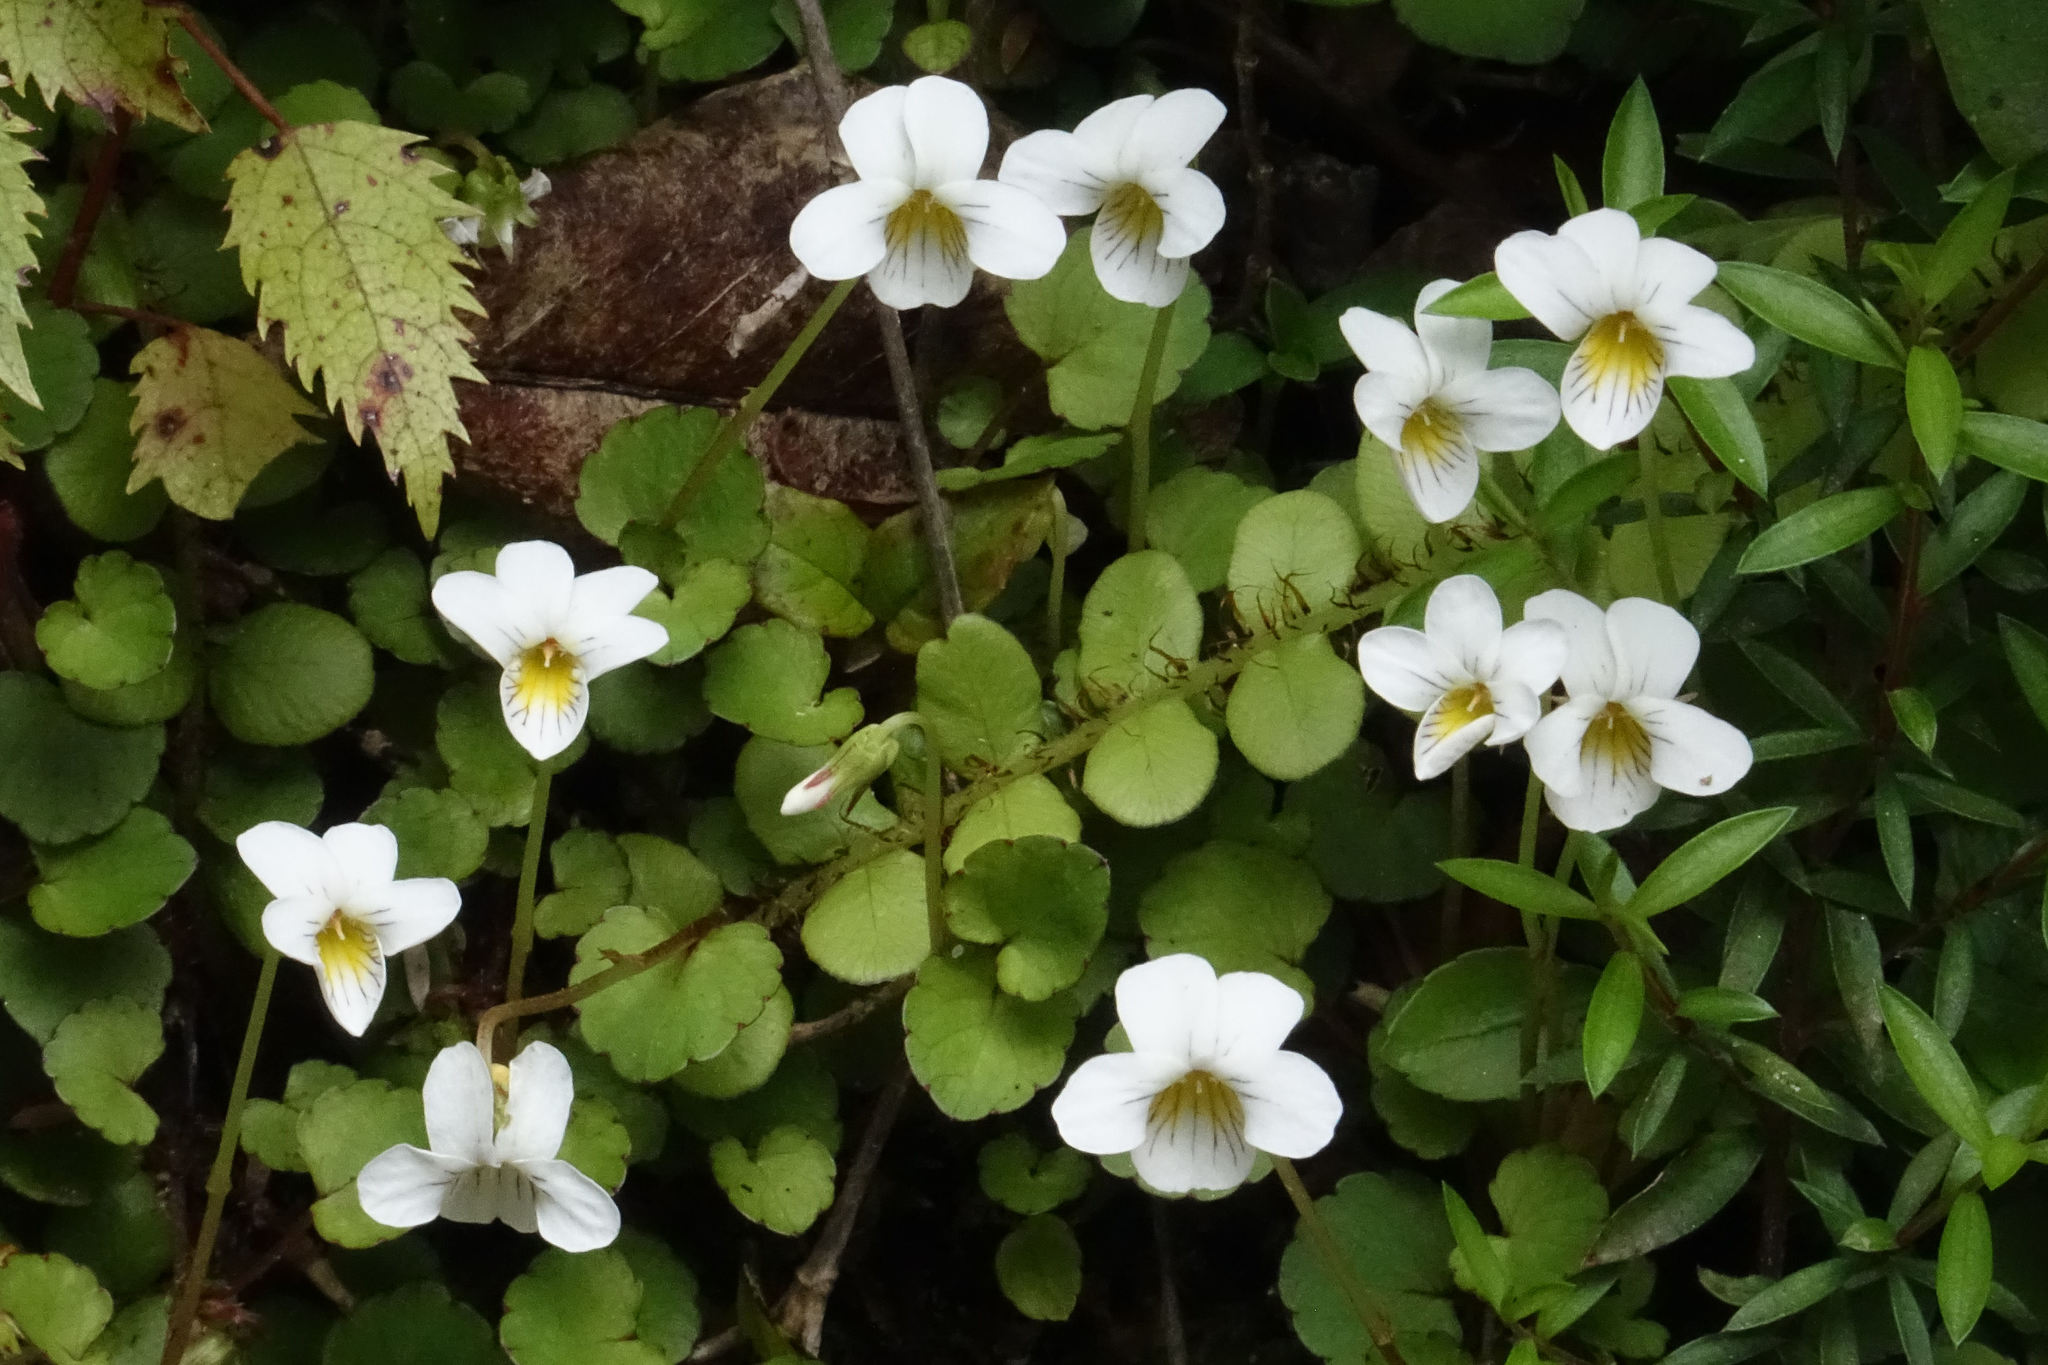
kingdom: Plantae
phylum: Tracheophyta
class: Magnoliopsida
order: Malpighiales
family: Violaceae
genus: Viola
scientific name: Viola filicaulis
